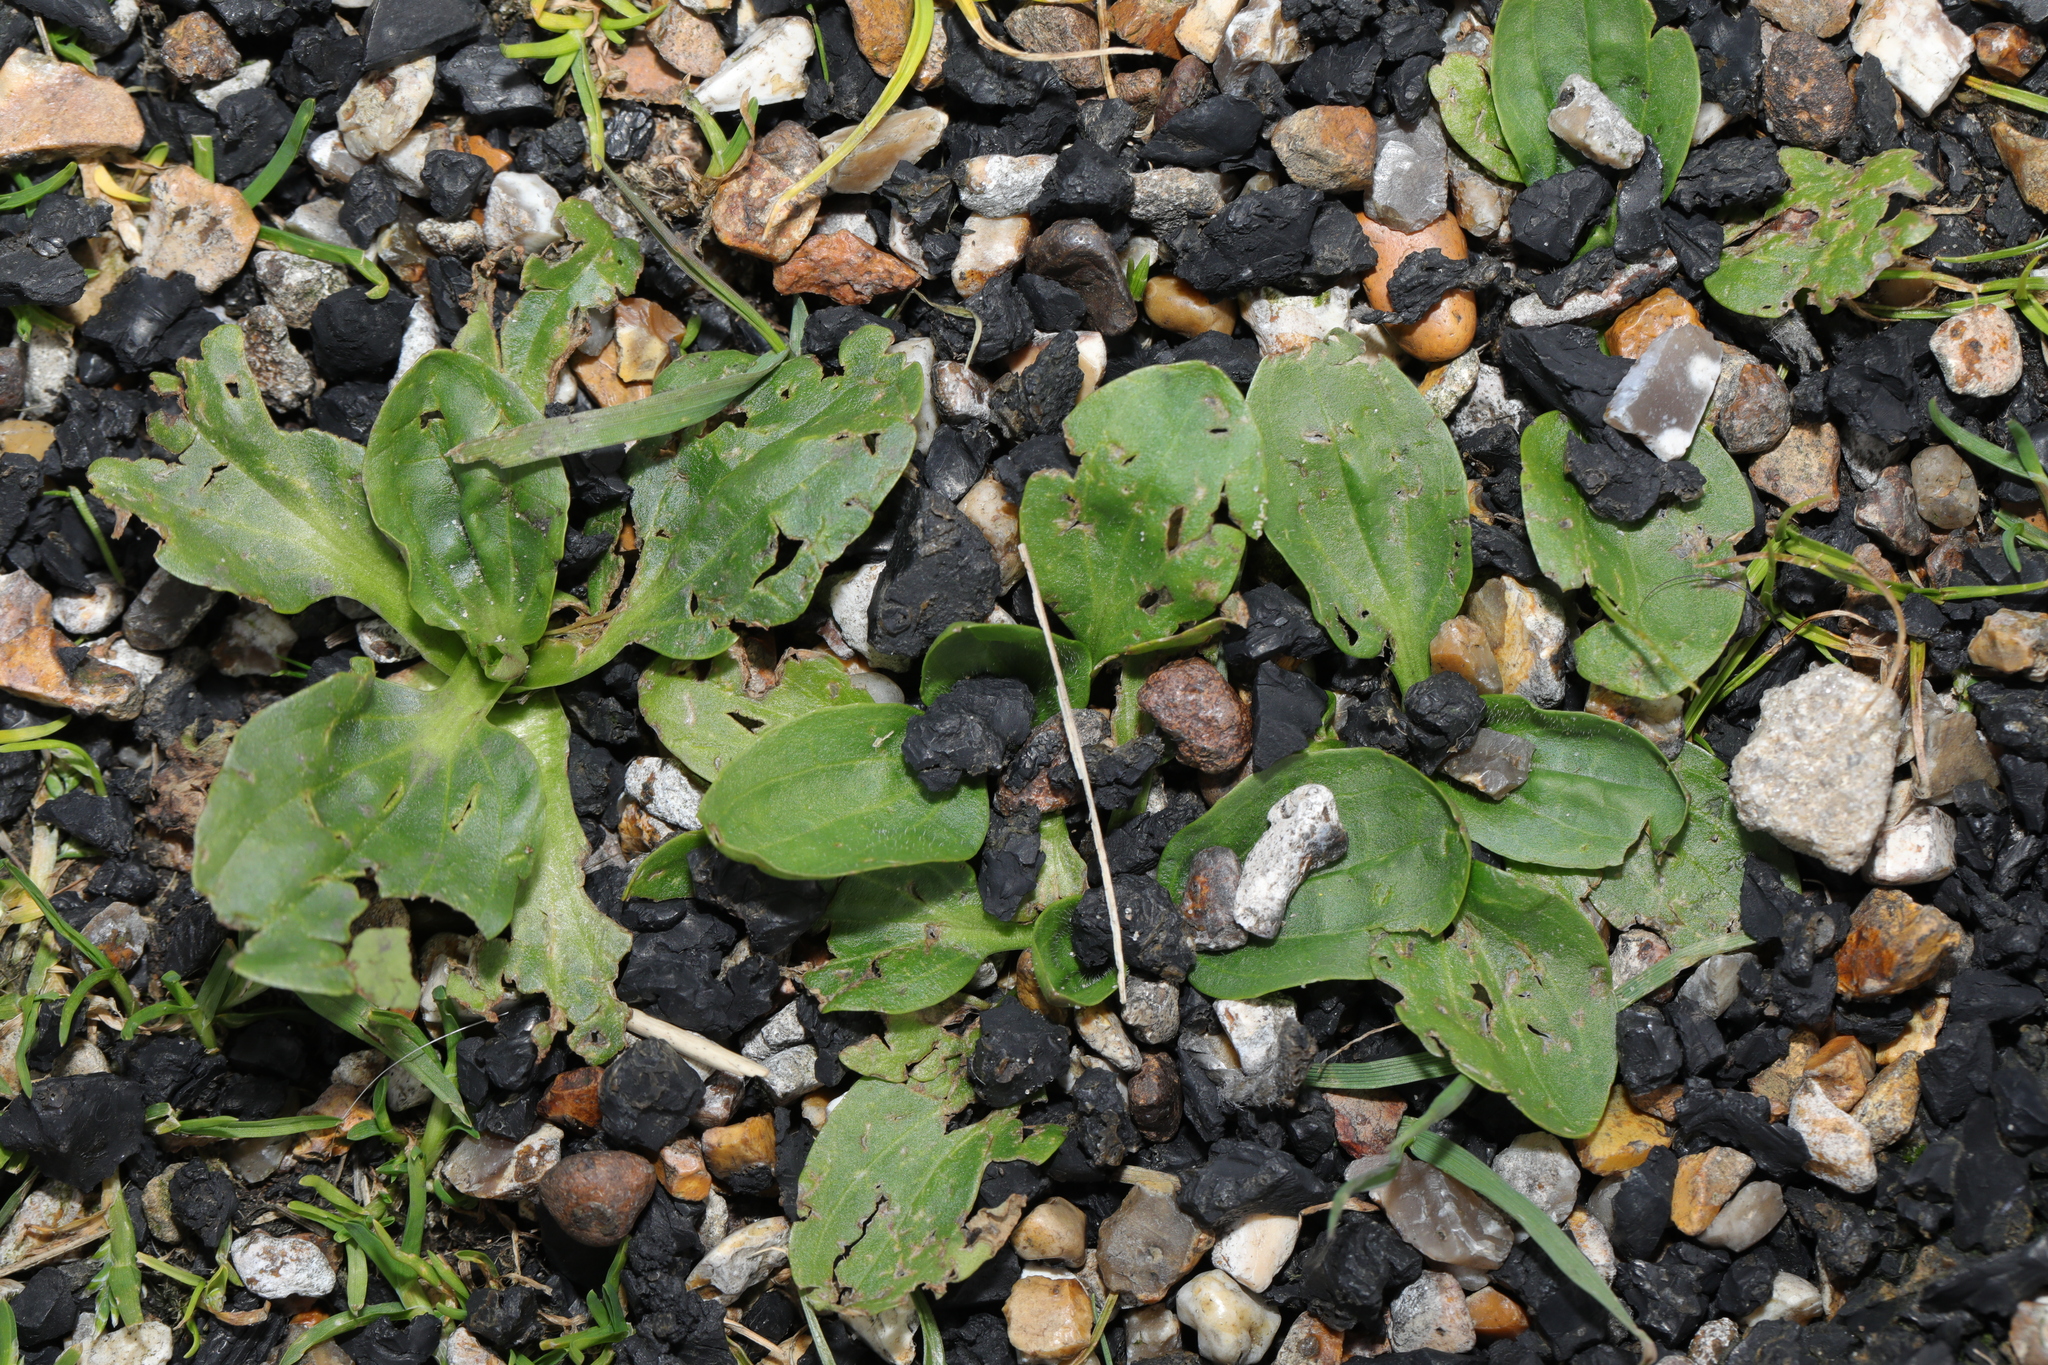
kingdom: Plantae
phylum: Tracheophyta
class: Magnoliopsida
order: Lamiales
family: Plantaginaceae
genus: Plantago
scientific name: Plantago major
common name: Common plantain
